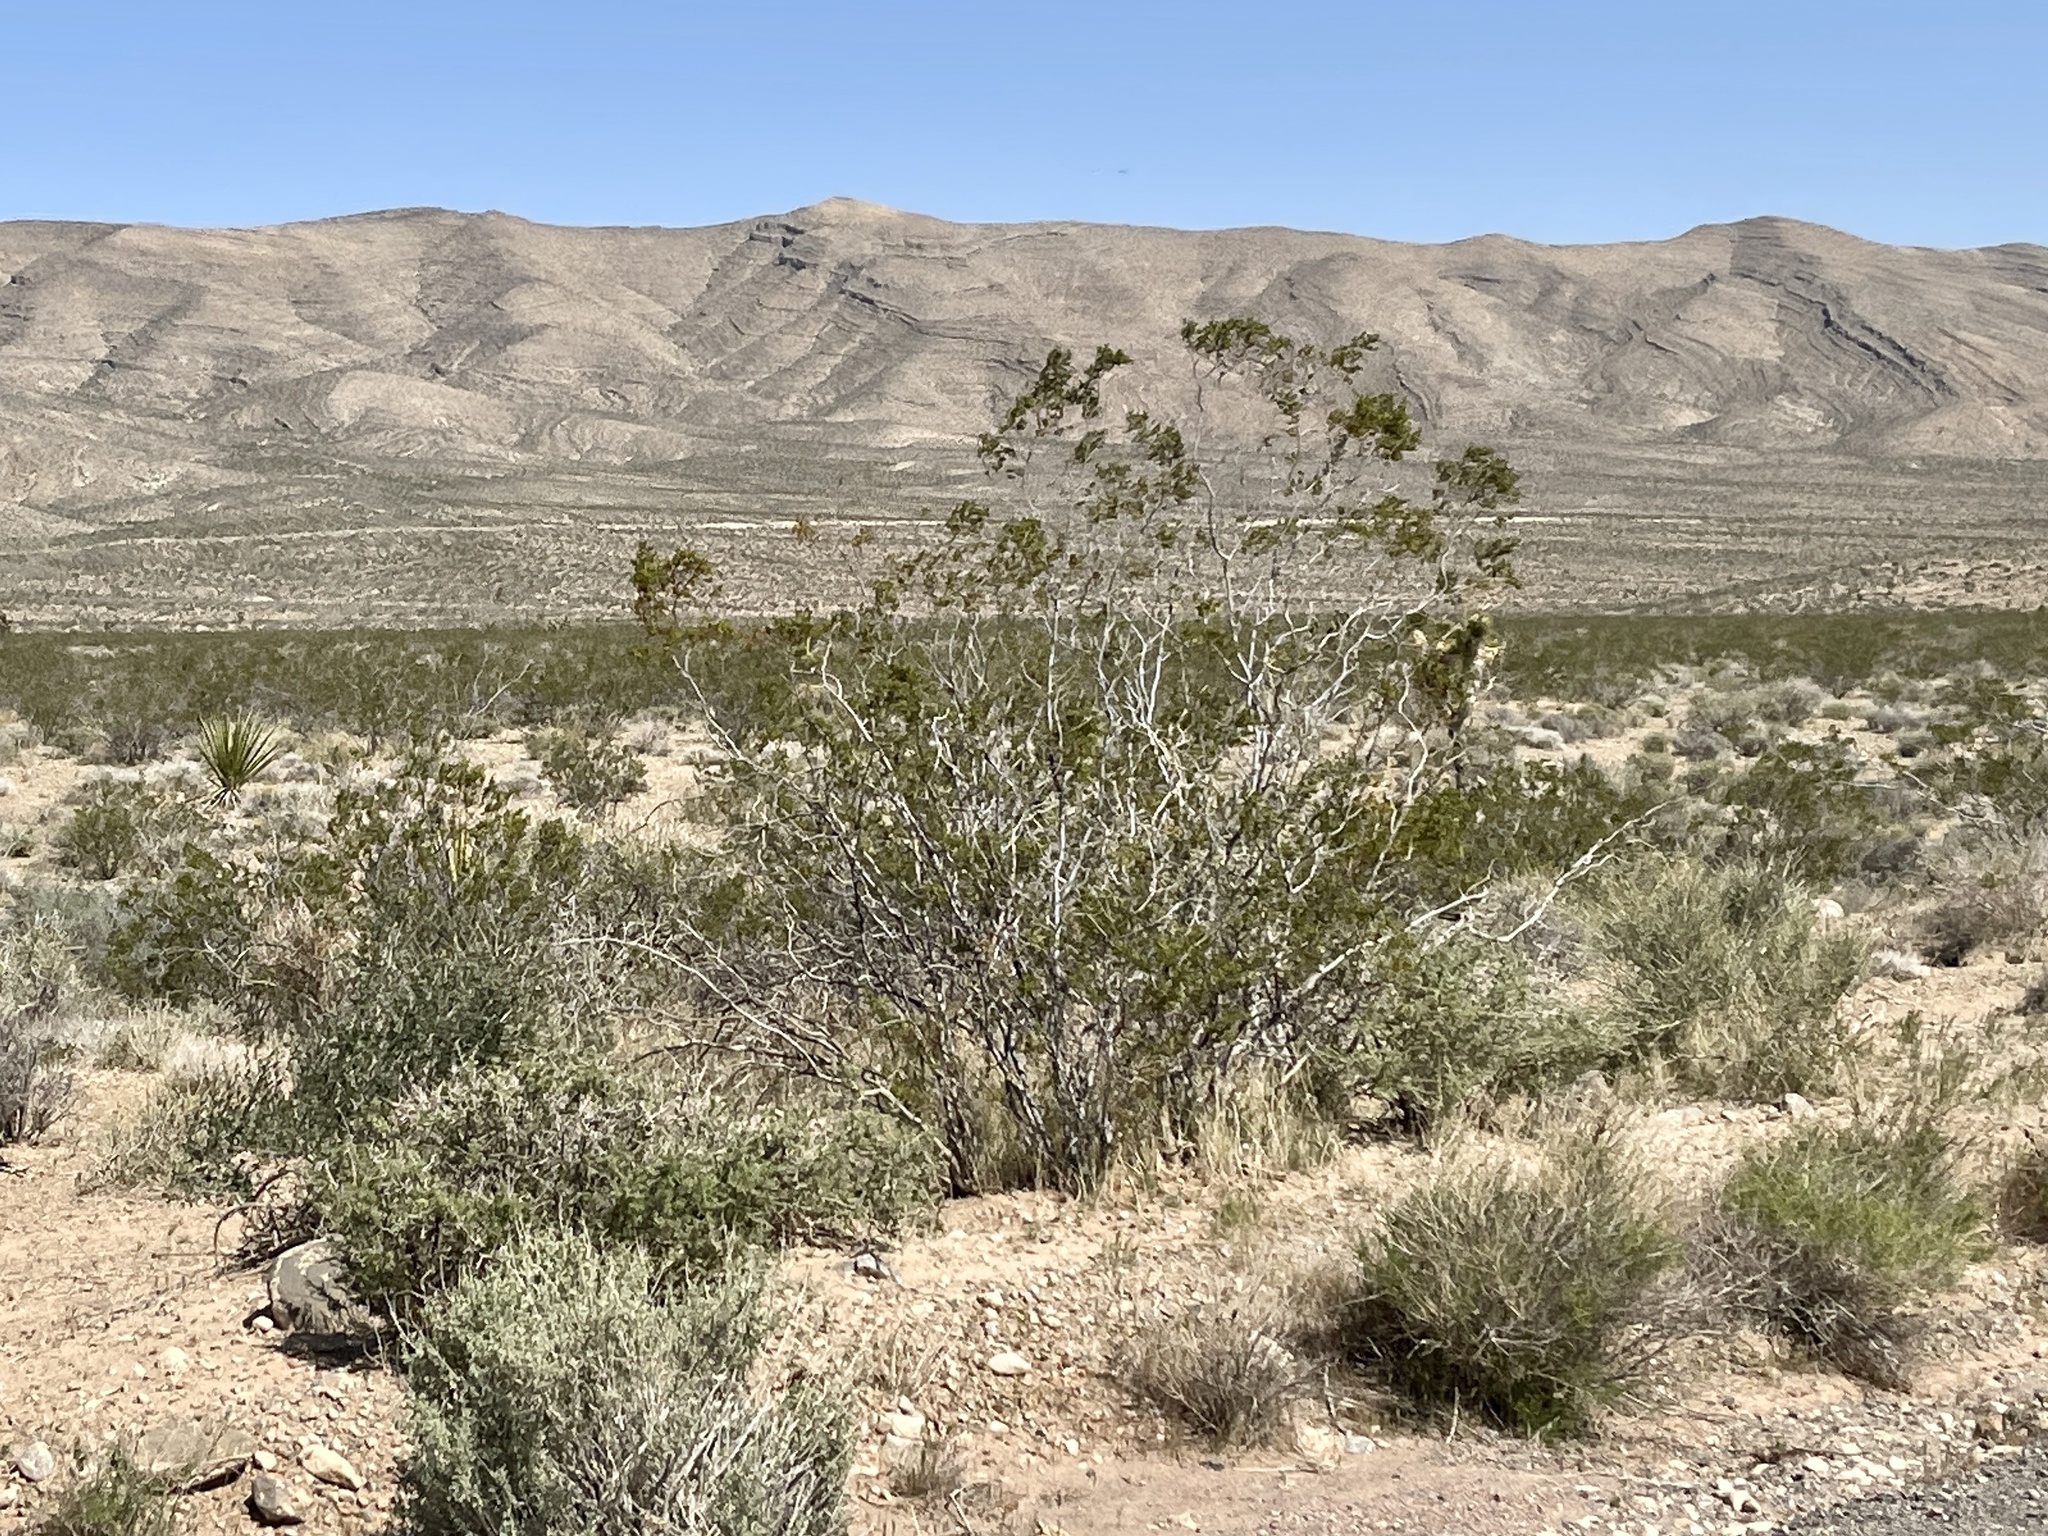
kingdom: Plantae
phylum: Tracheophyta
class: Magnoliopsida
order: Zygophyllales
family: Zygophyllaceae
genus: Larrea
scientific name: Larrea tridentata
